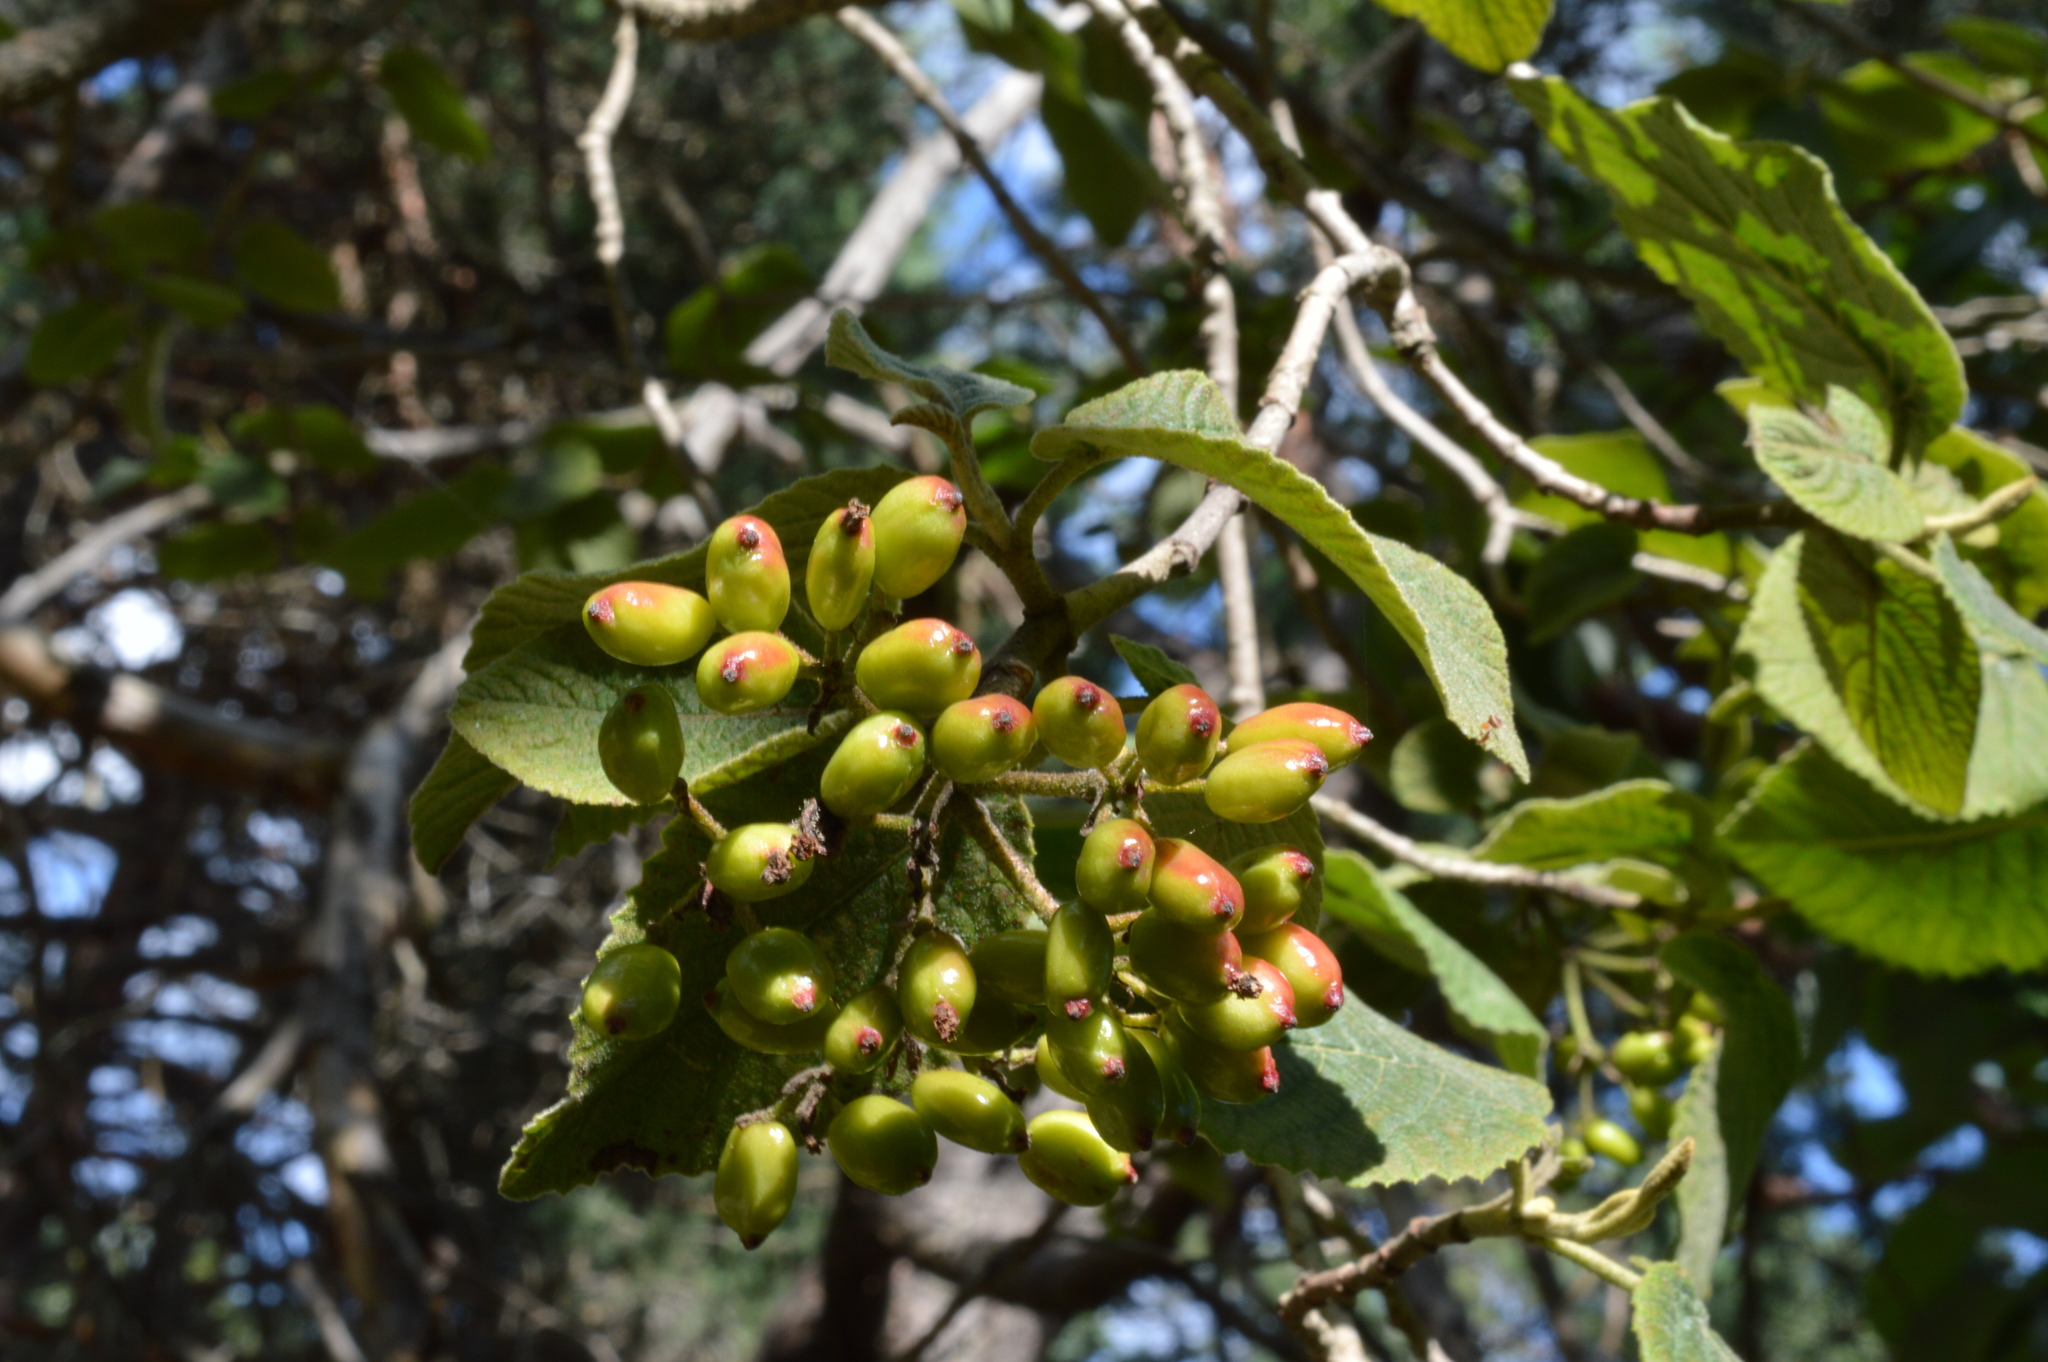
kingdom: Plantae
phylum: Tracheophyta
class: Magnoliopsida
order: Dipsacales
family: Viburnaceae
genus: Viburnum
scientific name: Viburnum lantana
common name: Wayfaring tree
